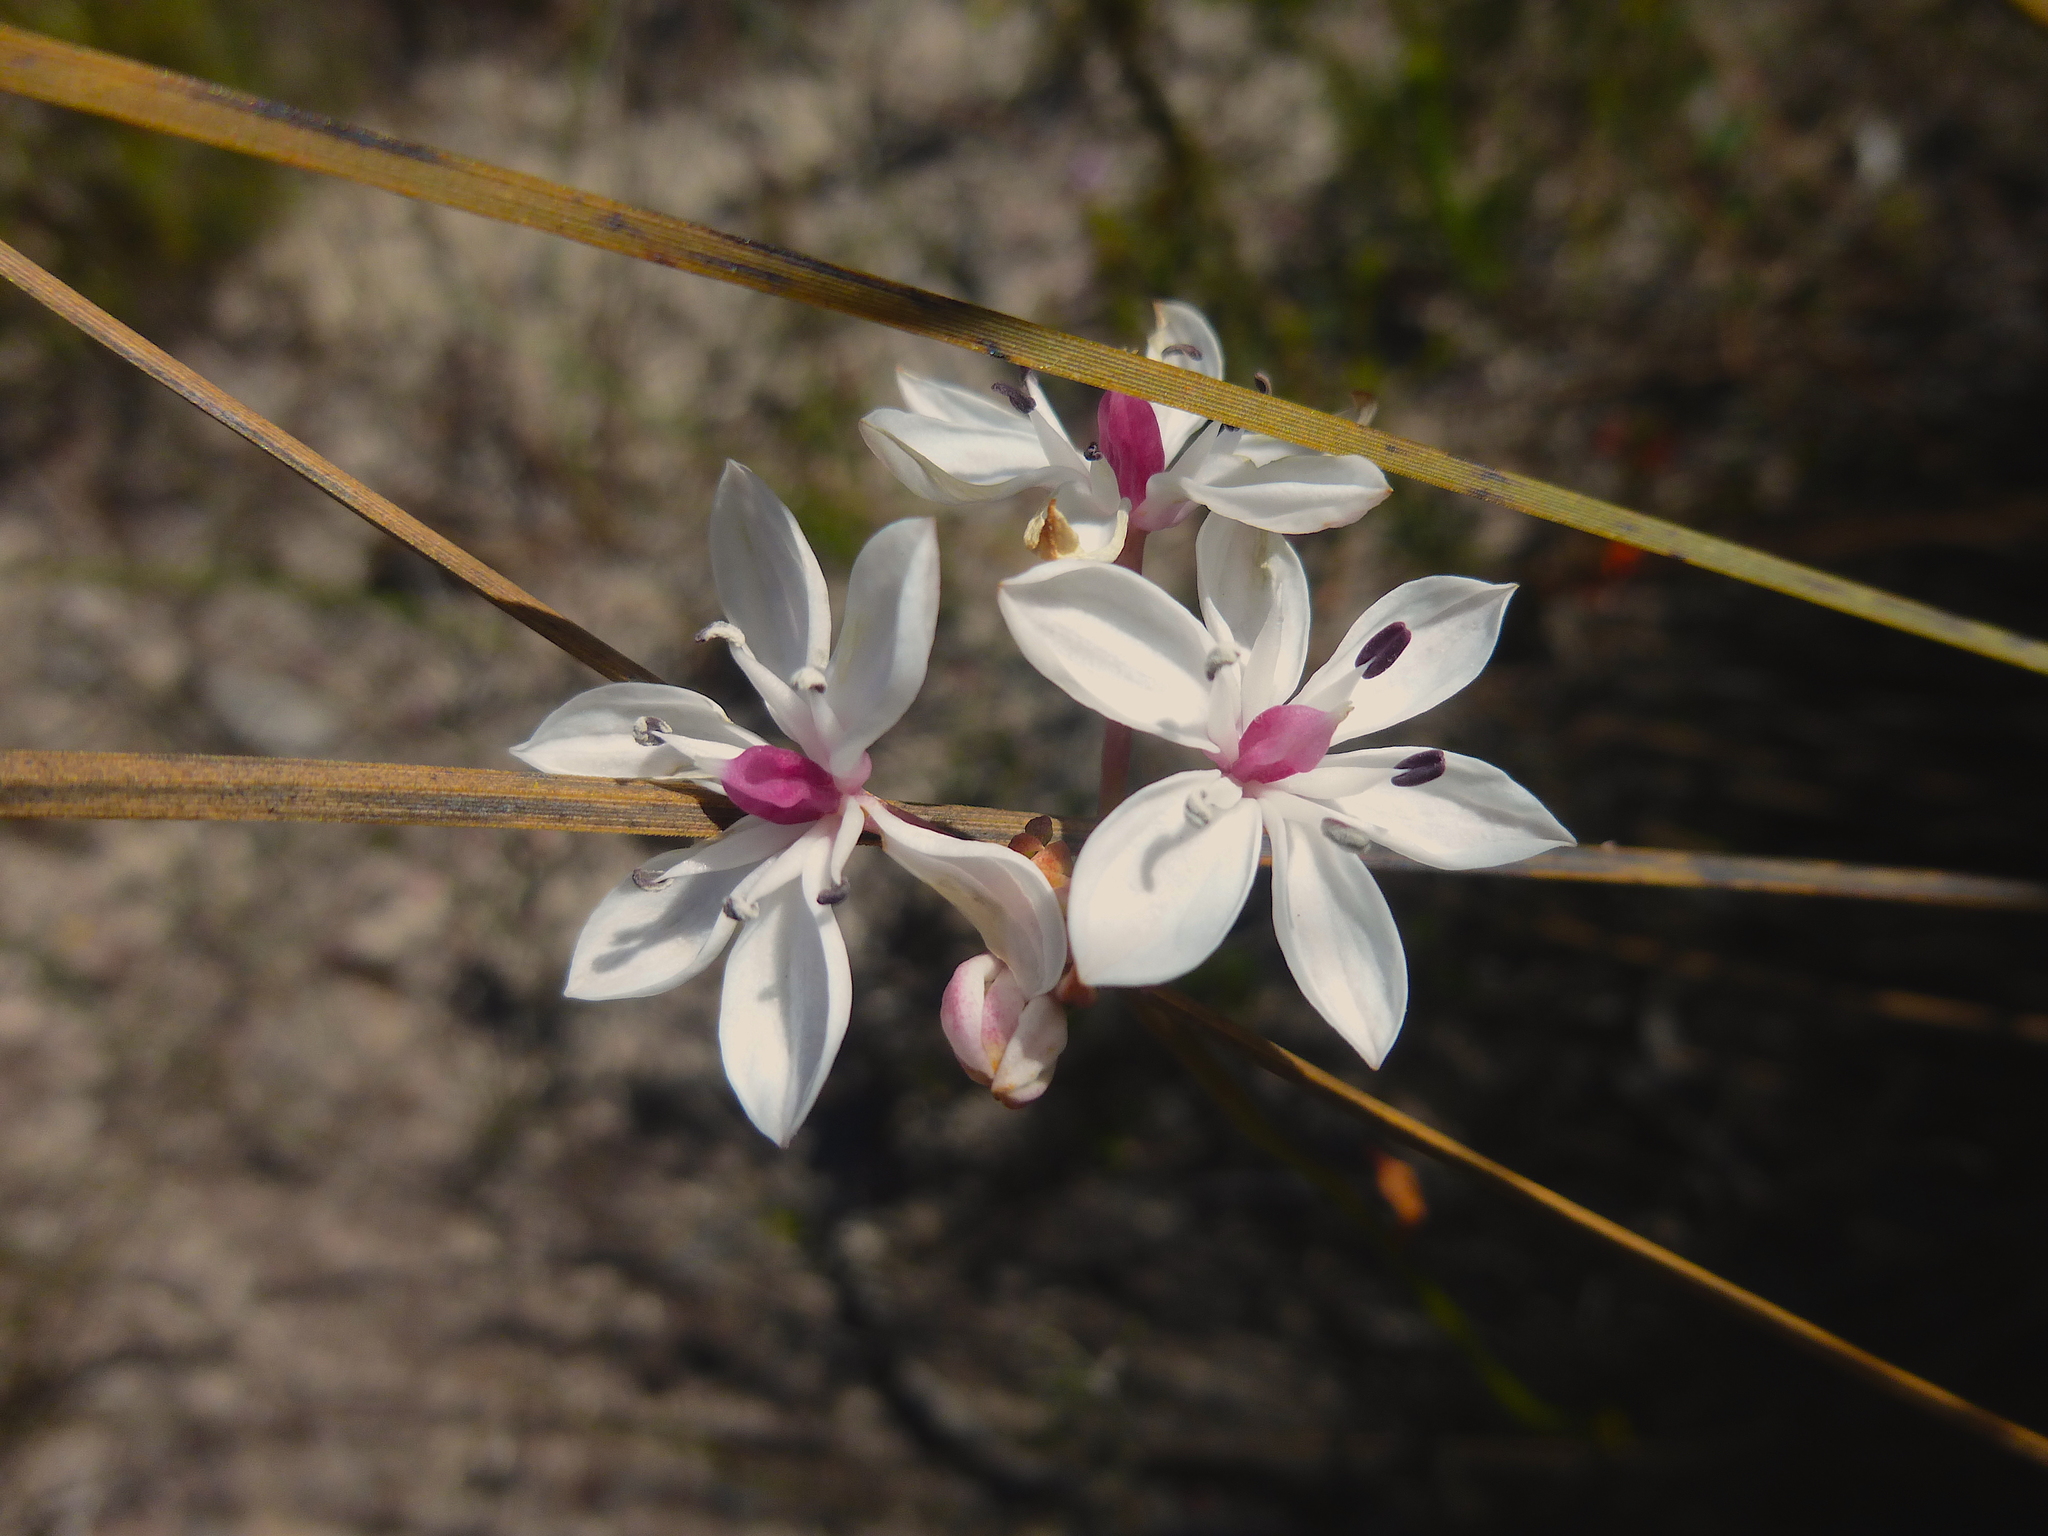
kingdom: Plantae
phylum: Tracheophyta
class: Liliopsida
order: Liliales
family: Colchicaceae
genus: Burchardia
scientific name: Burchardia umbellata
